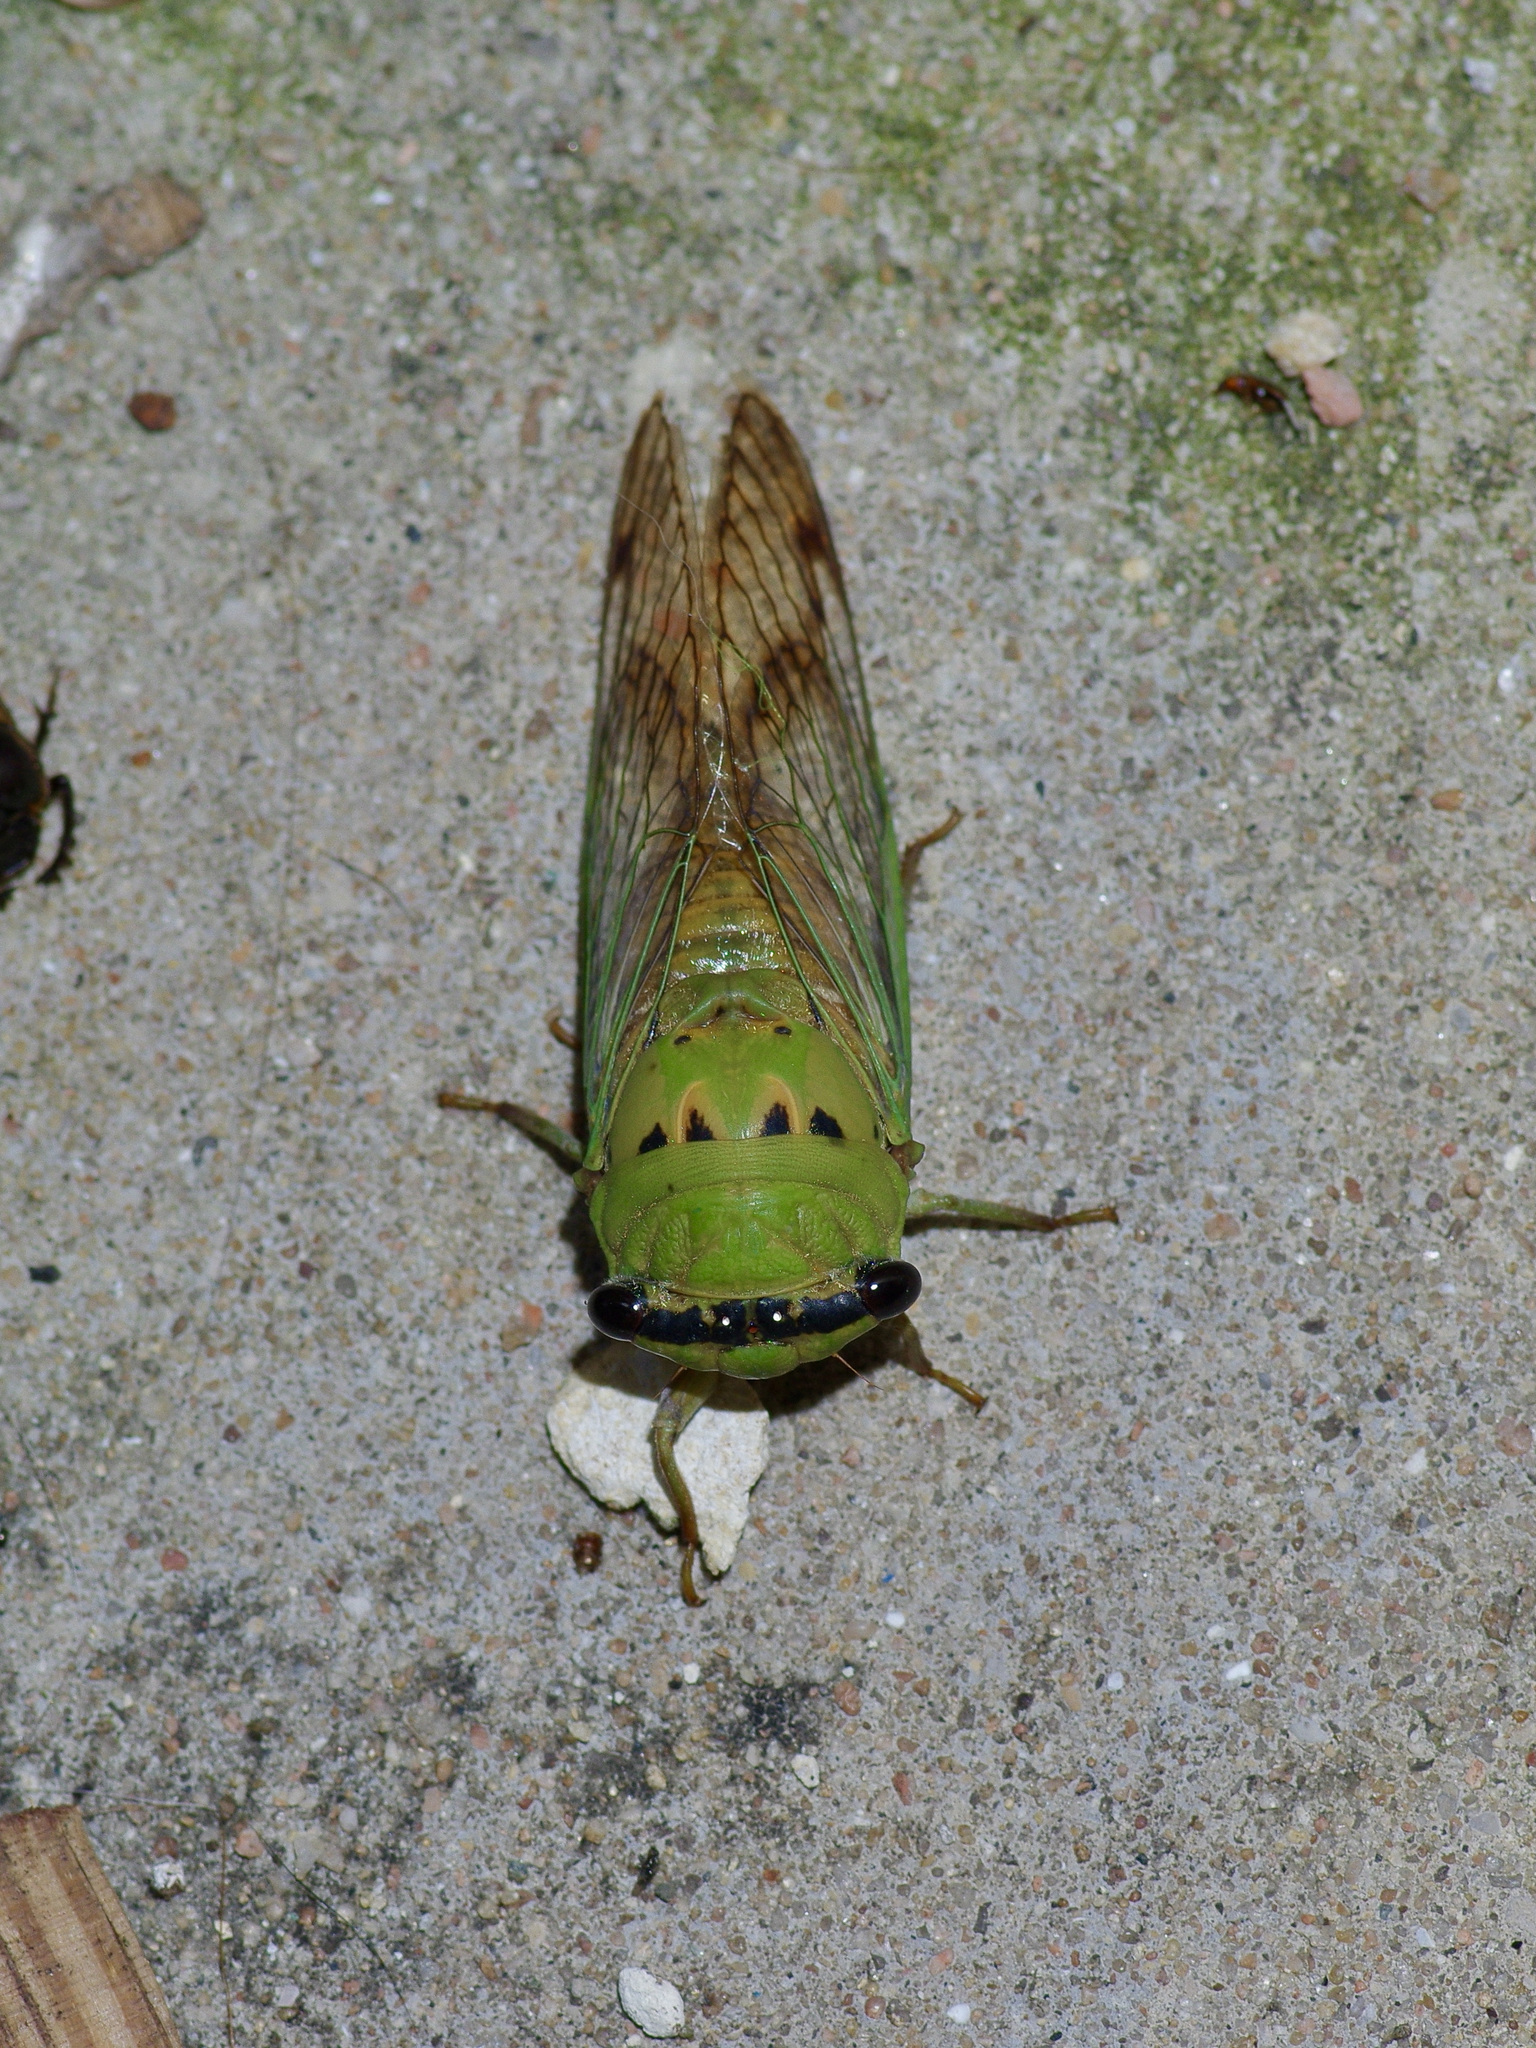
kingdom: Animalia
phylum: Arthropoda
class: Insecta
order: Hemiptera
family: Cicadidae
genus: Neotibicen
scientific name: Neotibicen superbus
